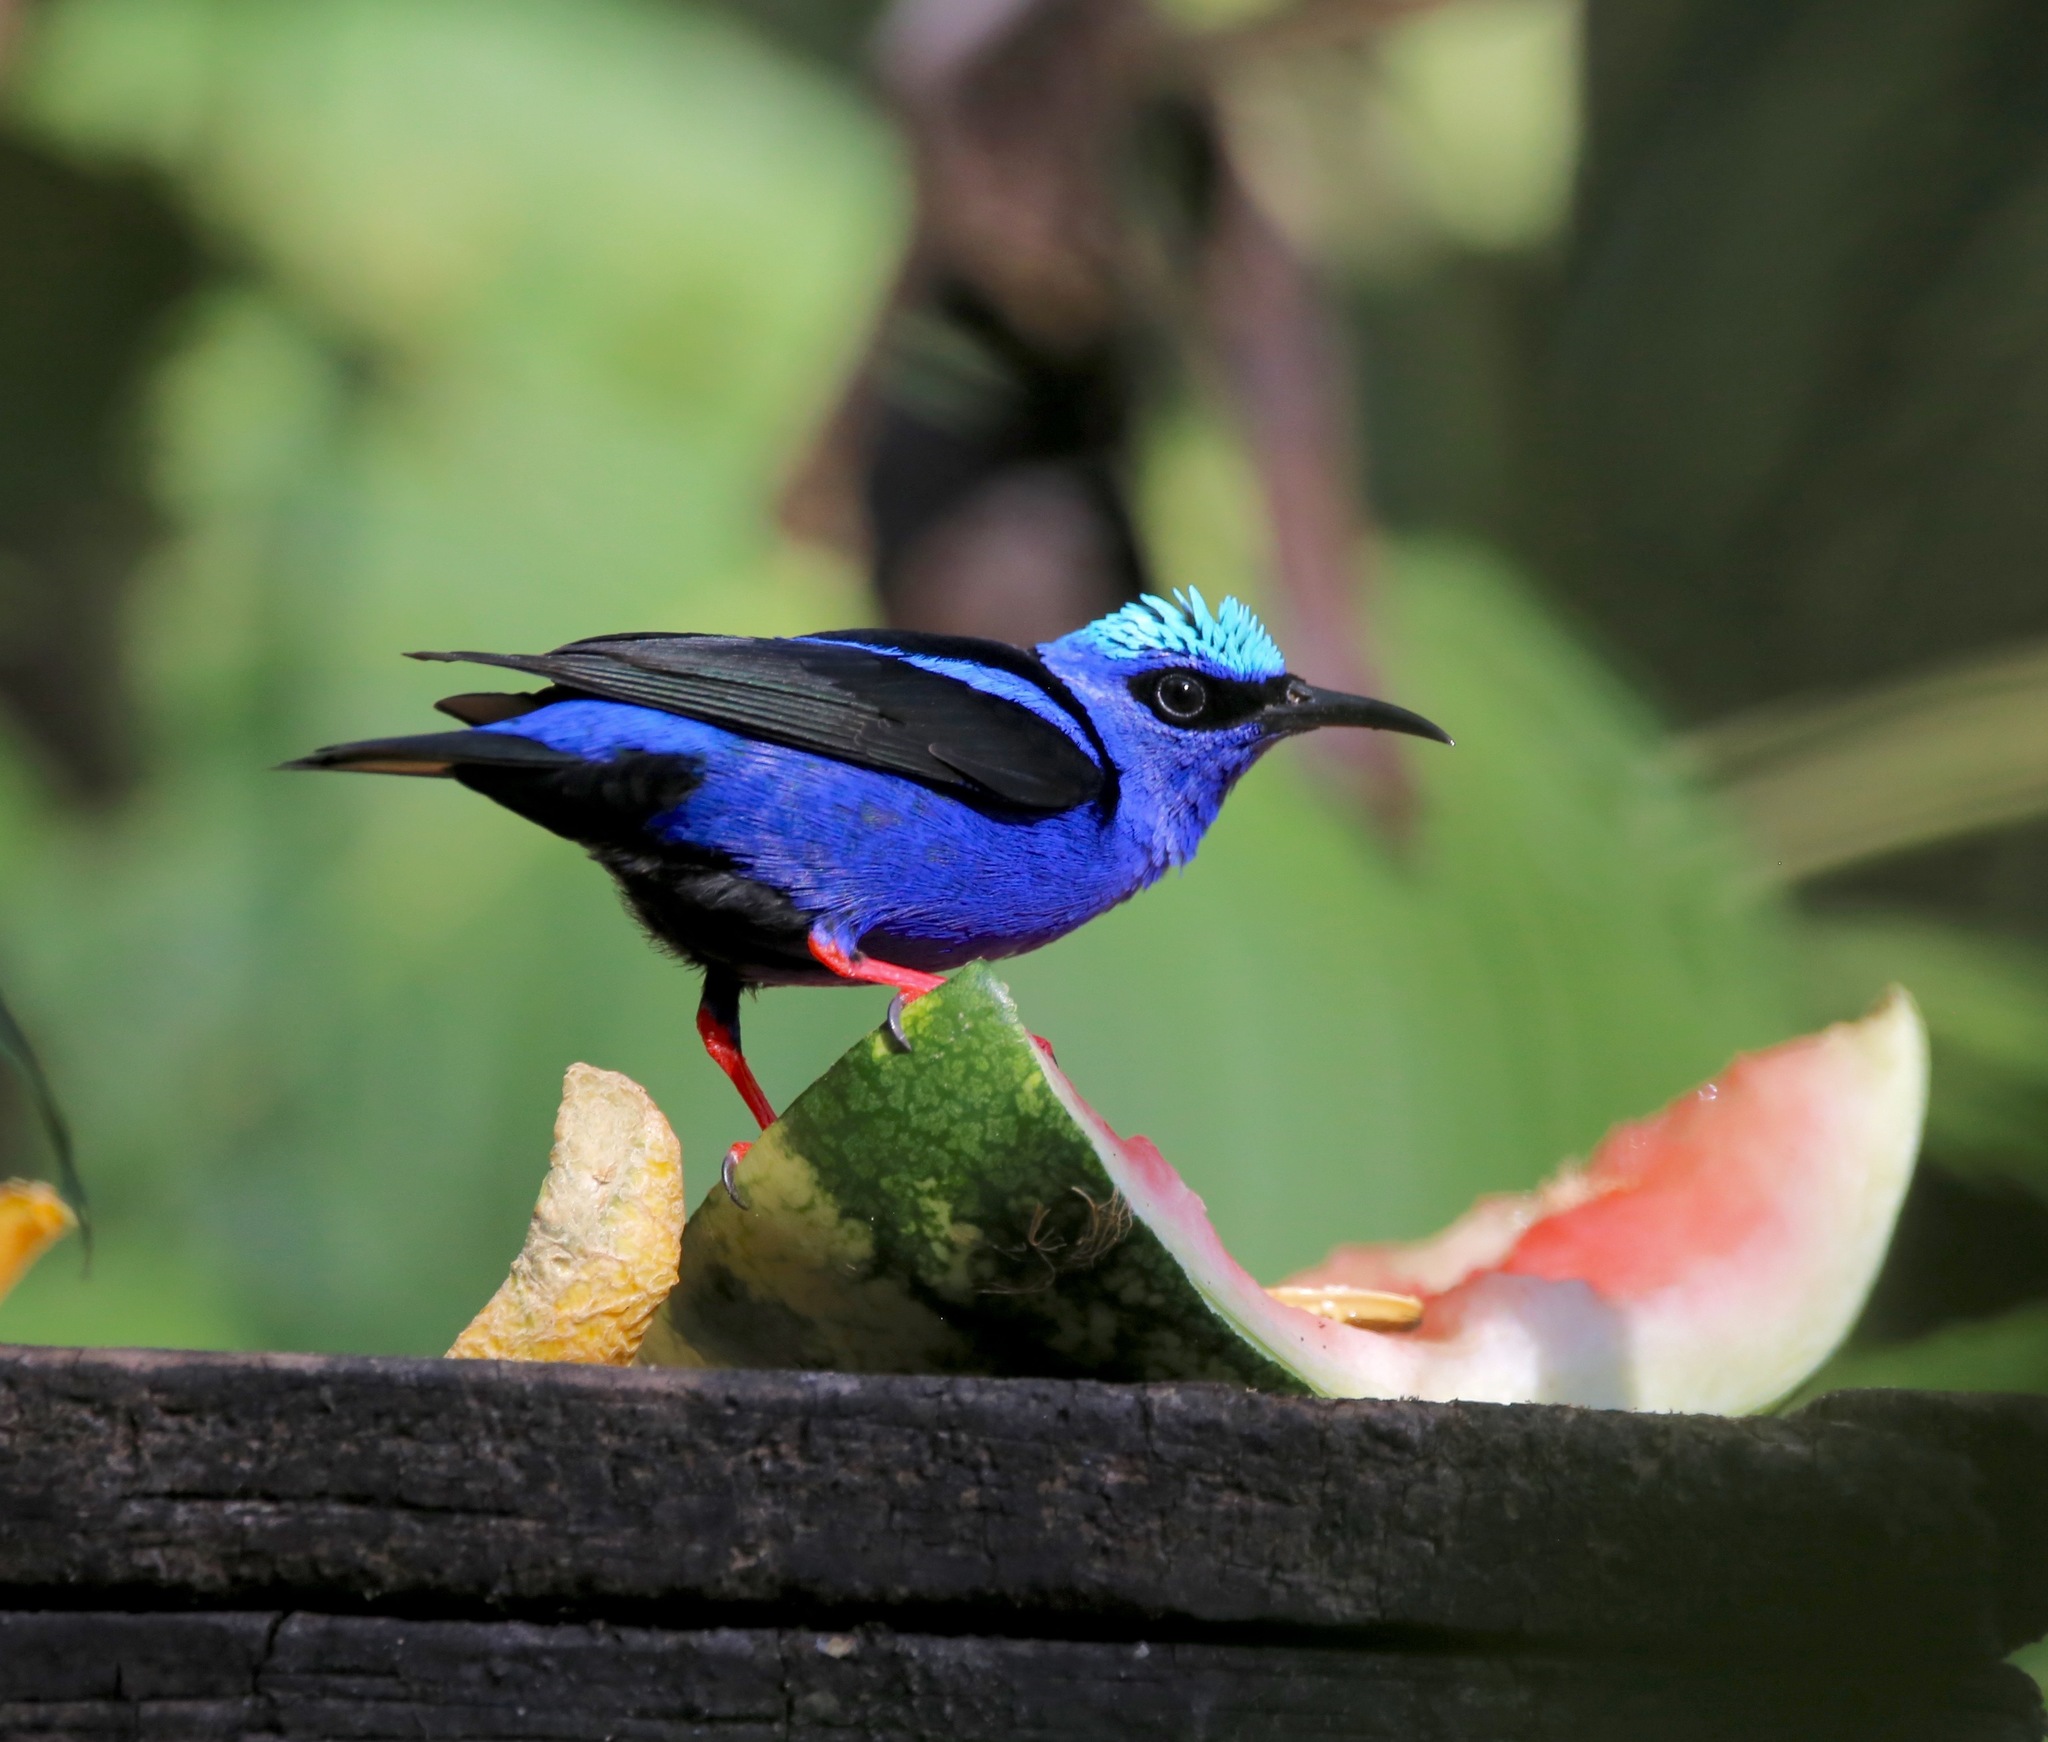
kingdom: Animalia
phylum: Chordata
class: Aves
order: Passeriformes
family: Thraupidae
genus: Cyanerpes
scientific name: Cyanerpes cyaneus
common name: Red-legged honeycreeper
